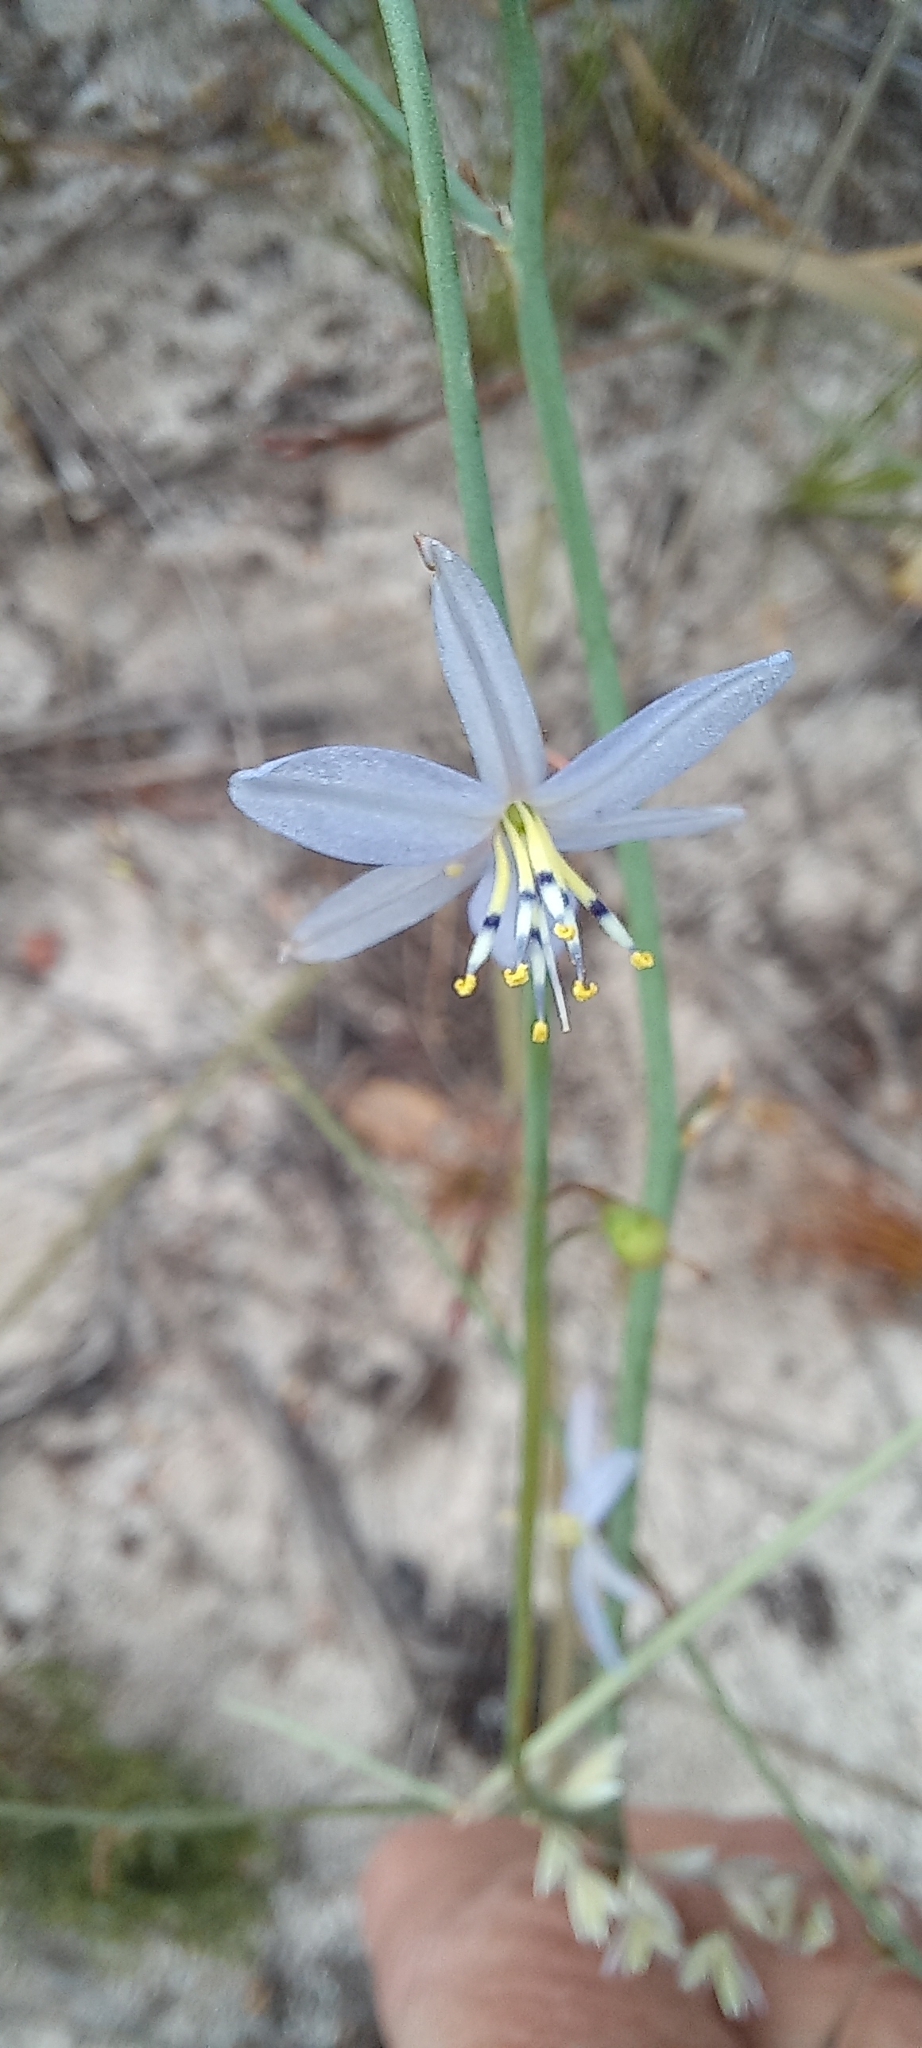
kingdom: Plantae
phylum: Tracheophyta
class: Liliopsida
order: Asparagales
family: Asphodelaceae
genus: Caesia
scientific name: Caesia contorta
